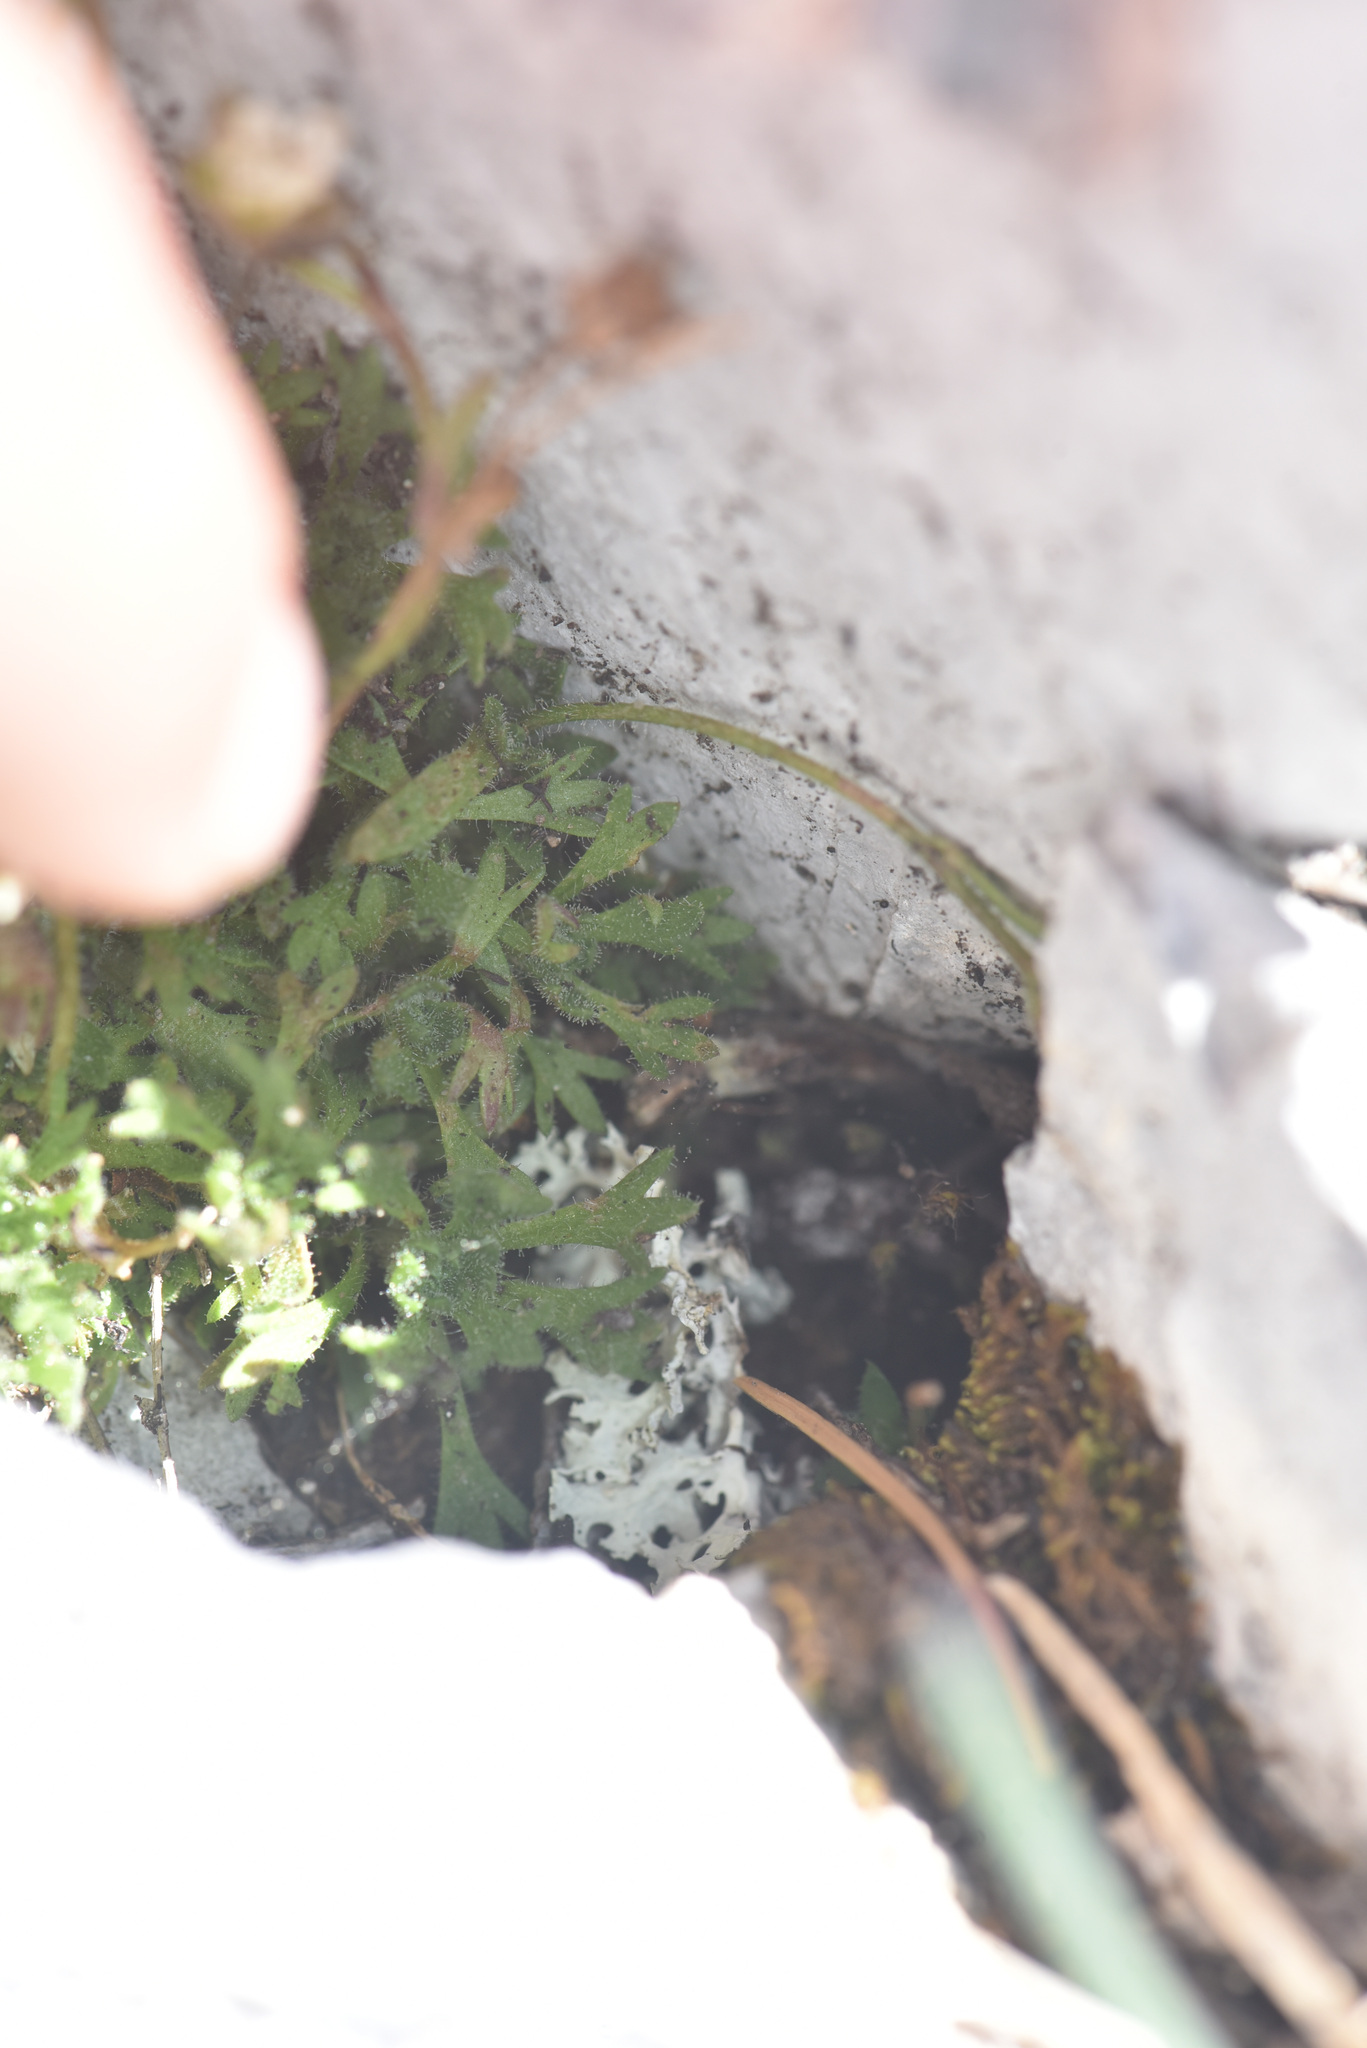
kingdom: Plantae
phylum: Tracheophyta
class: Magnoliopsida
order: Saxifragales
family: Saxifragaceae
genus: Saxifraga
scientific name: Saxifraga cespitosa
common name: Tufted saxifrage
